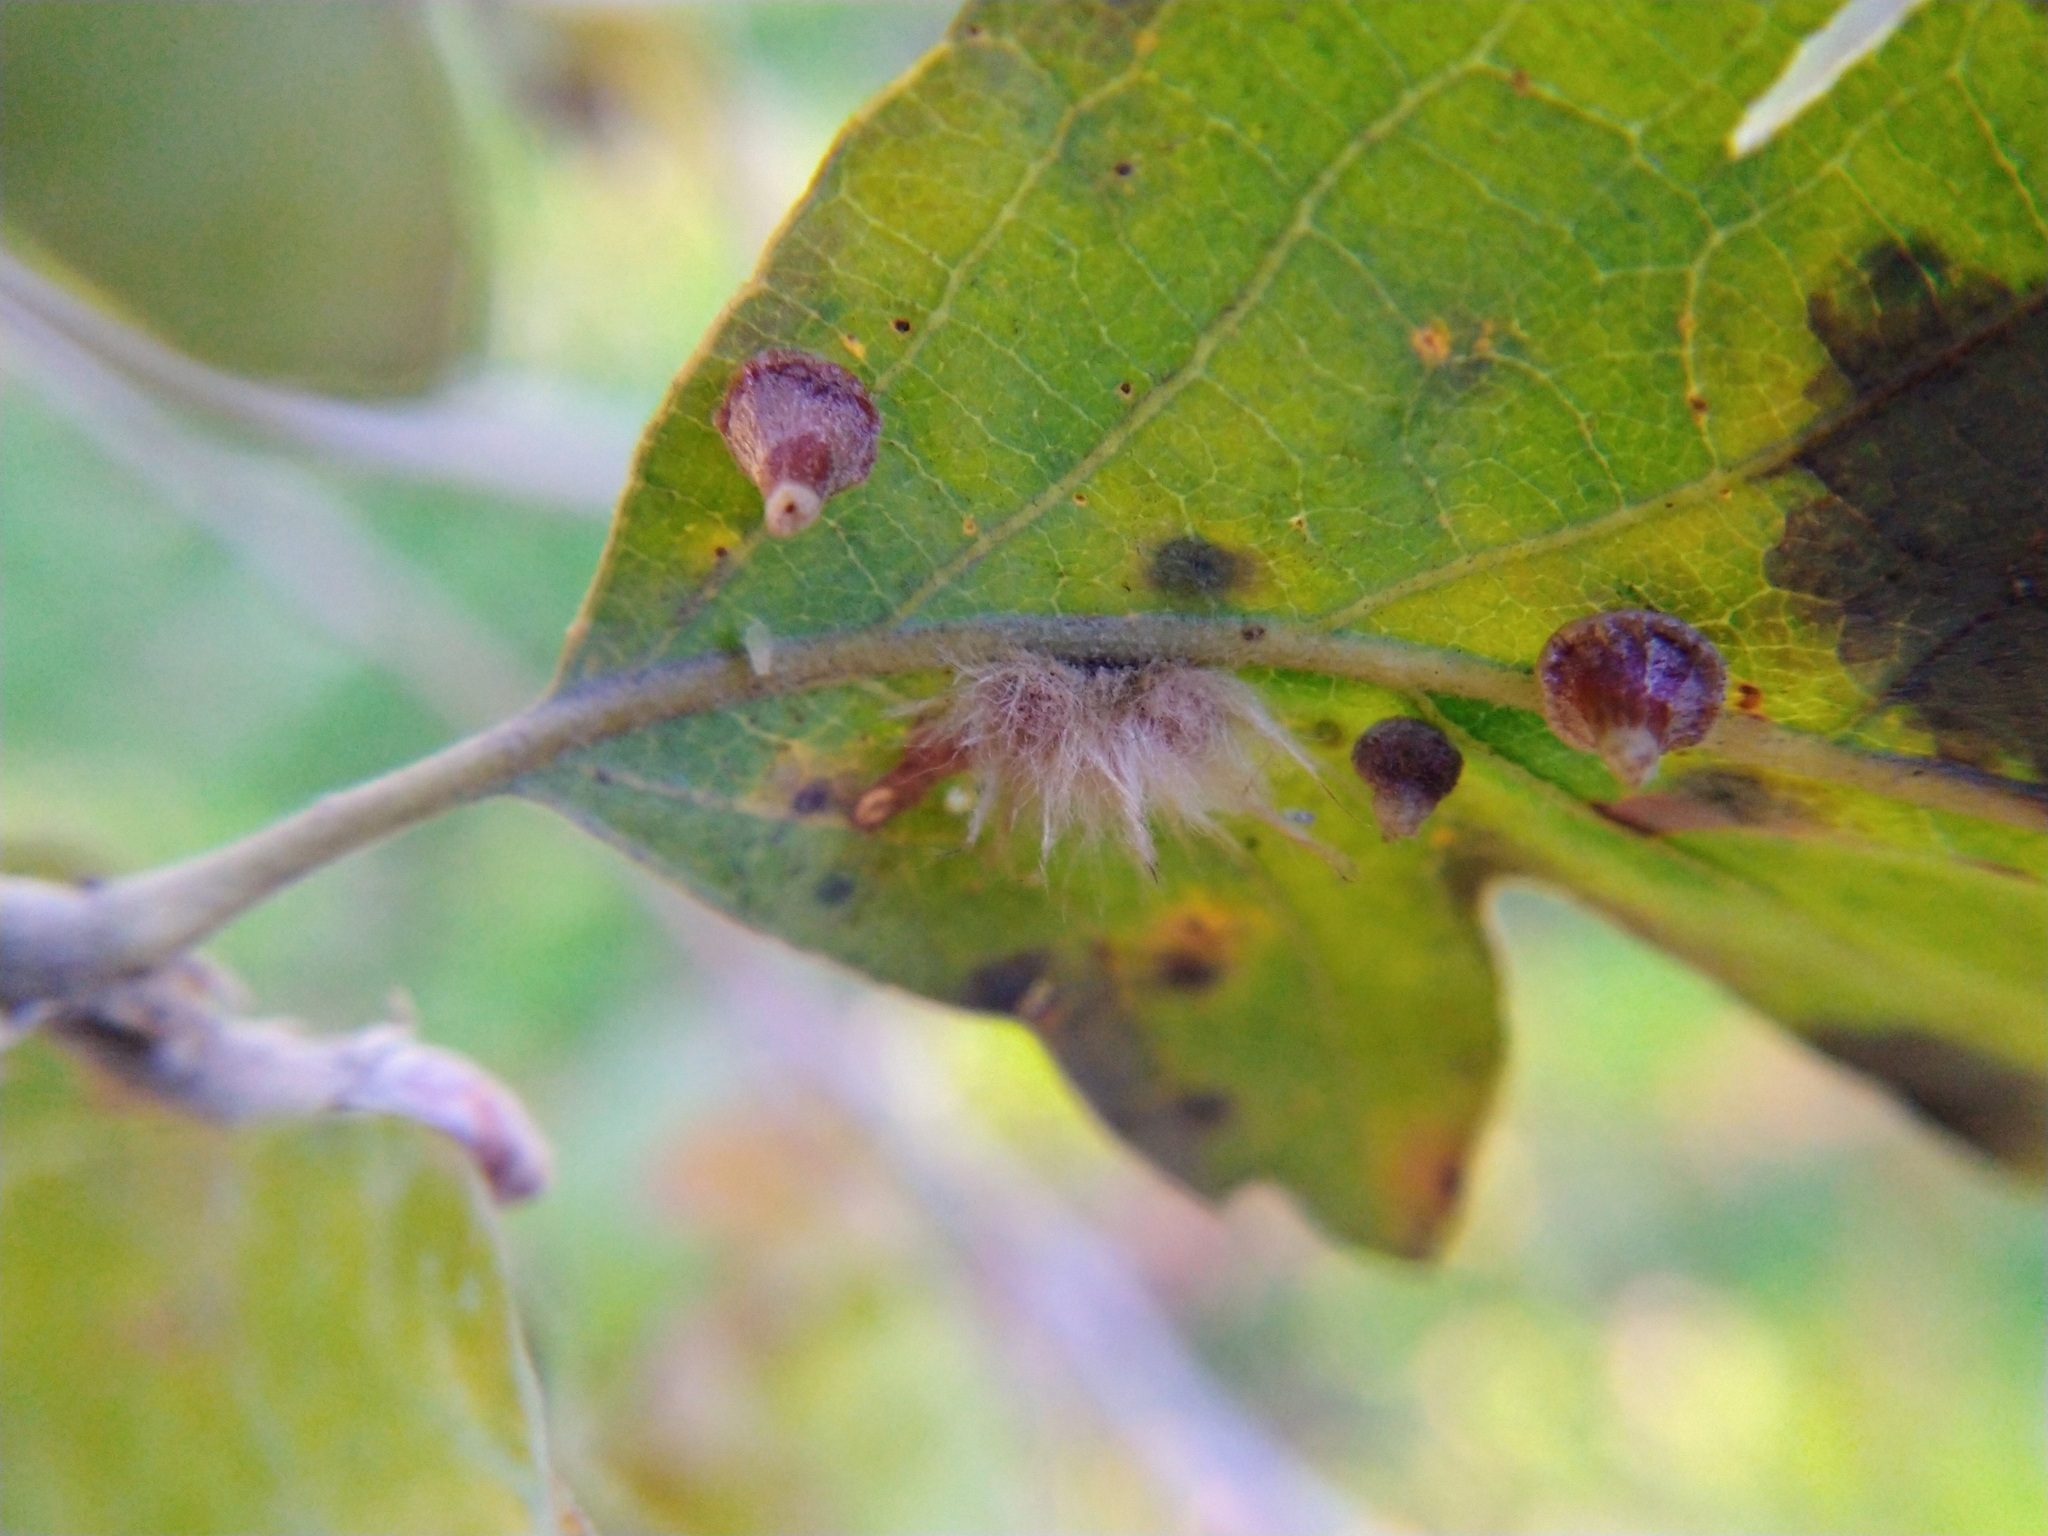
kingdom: Animalia
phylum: Arthropoda
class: Insecta
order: Hymenoptera
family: Cynipidae
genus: Andricus
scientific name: Andricus Druon fullawayi
